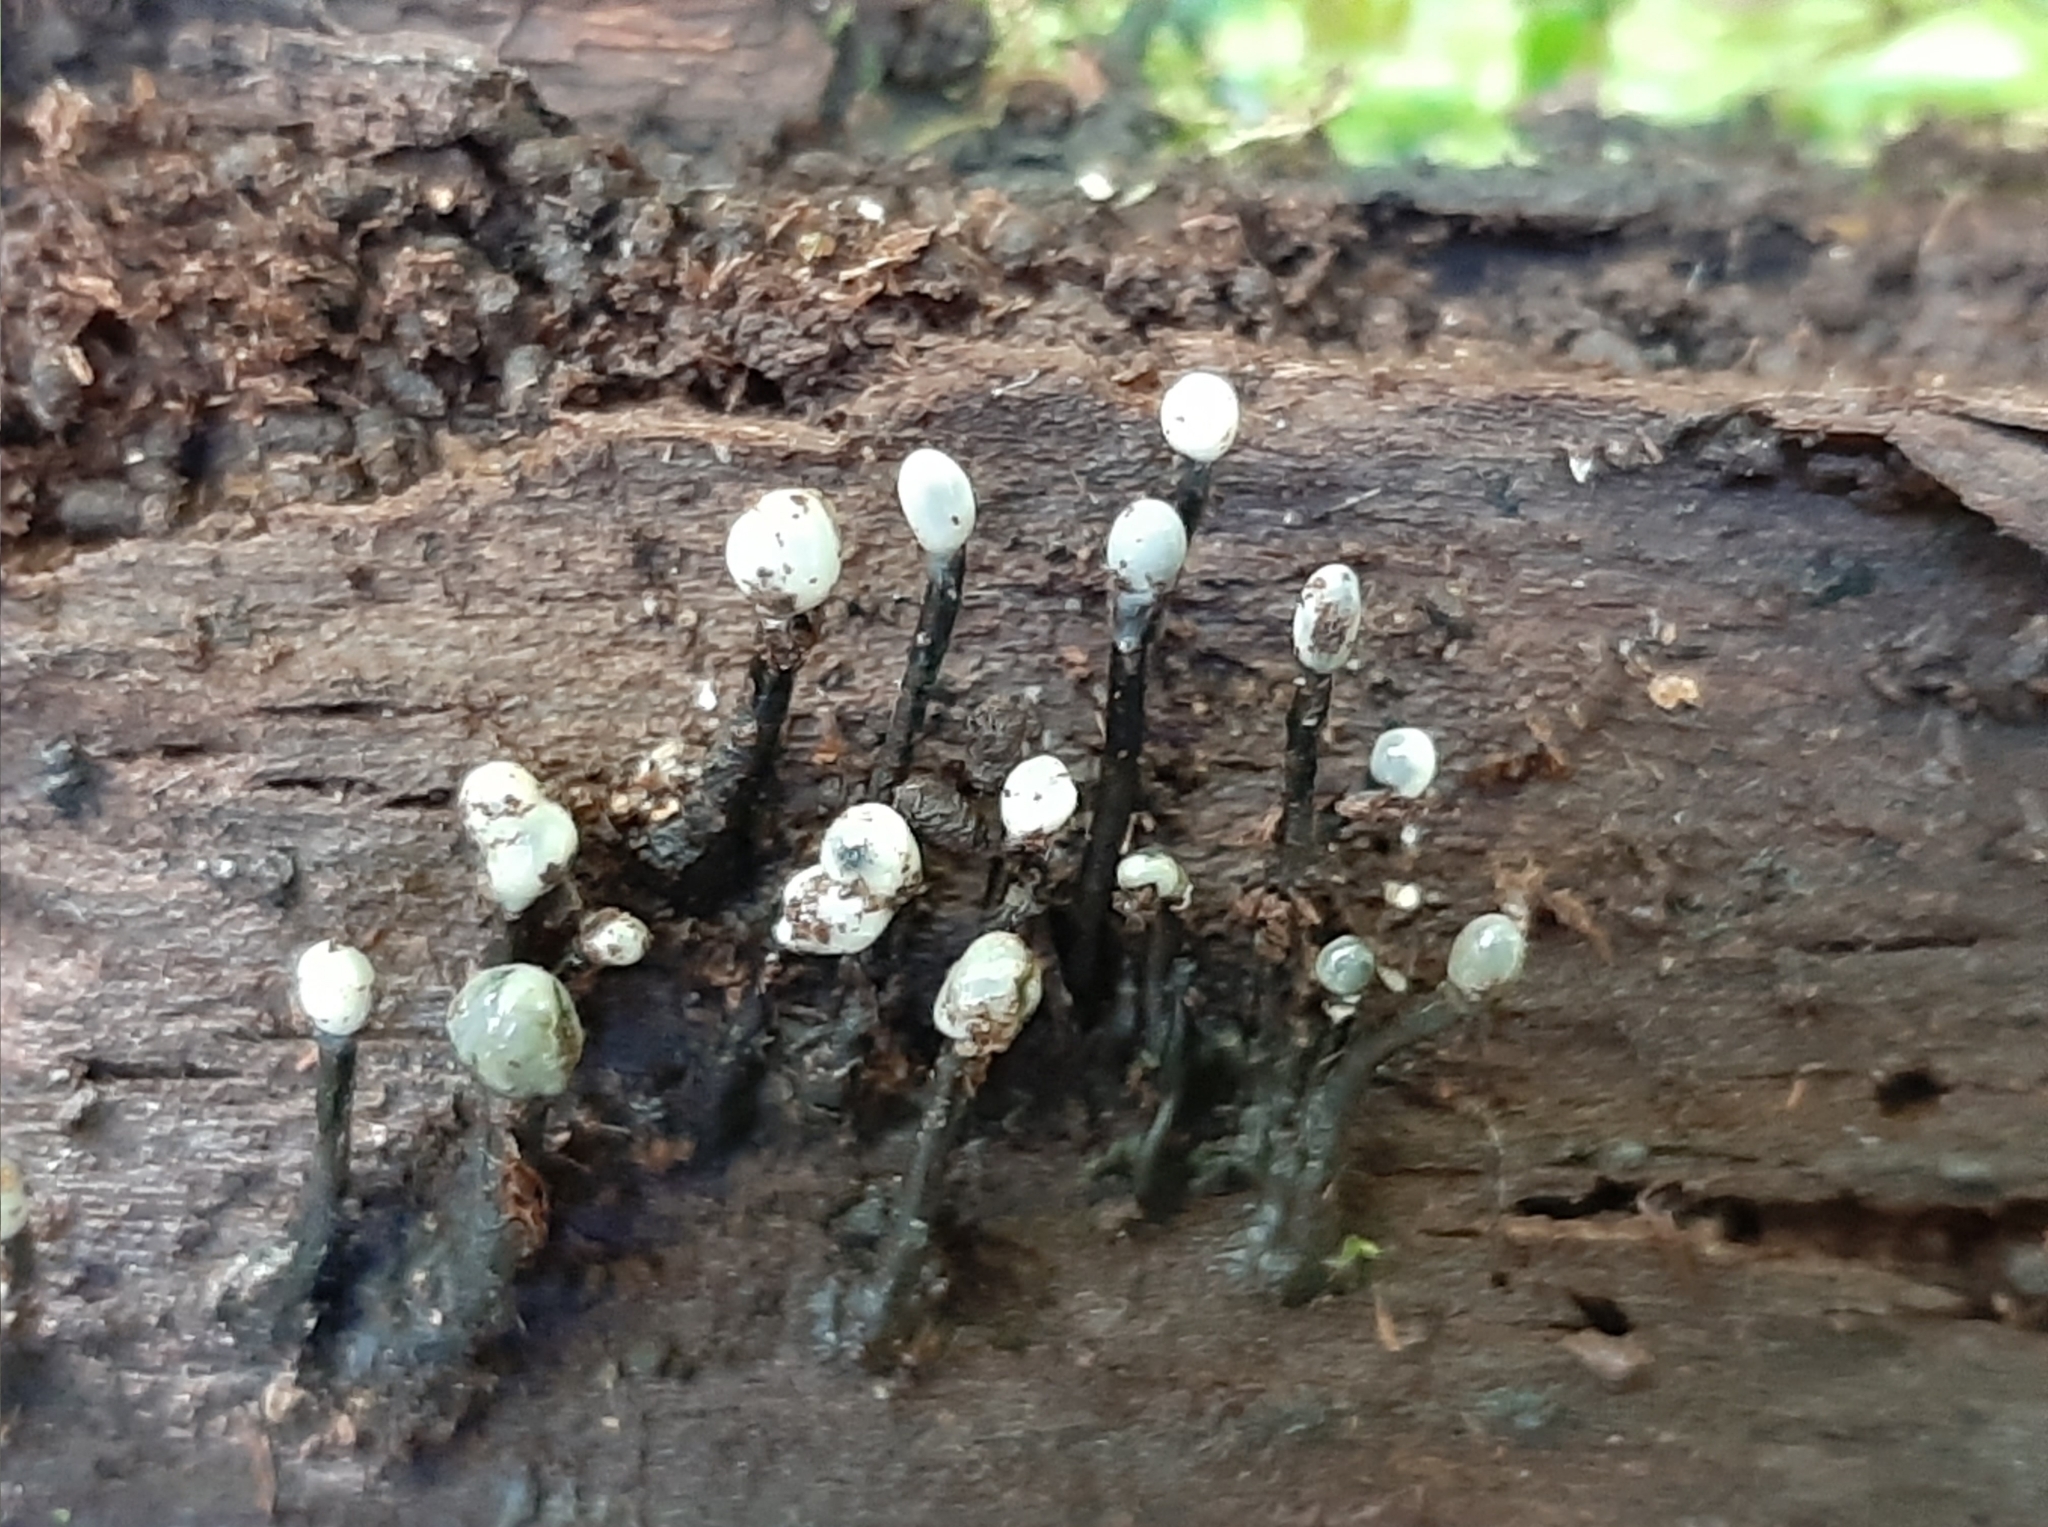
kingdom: Fungi
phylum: Ascomycota
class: Leotiomycetes
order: Helotiales
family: Bulgariaceae
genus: Holwaya
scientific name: Holwaya mucida
